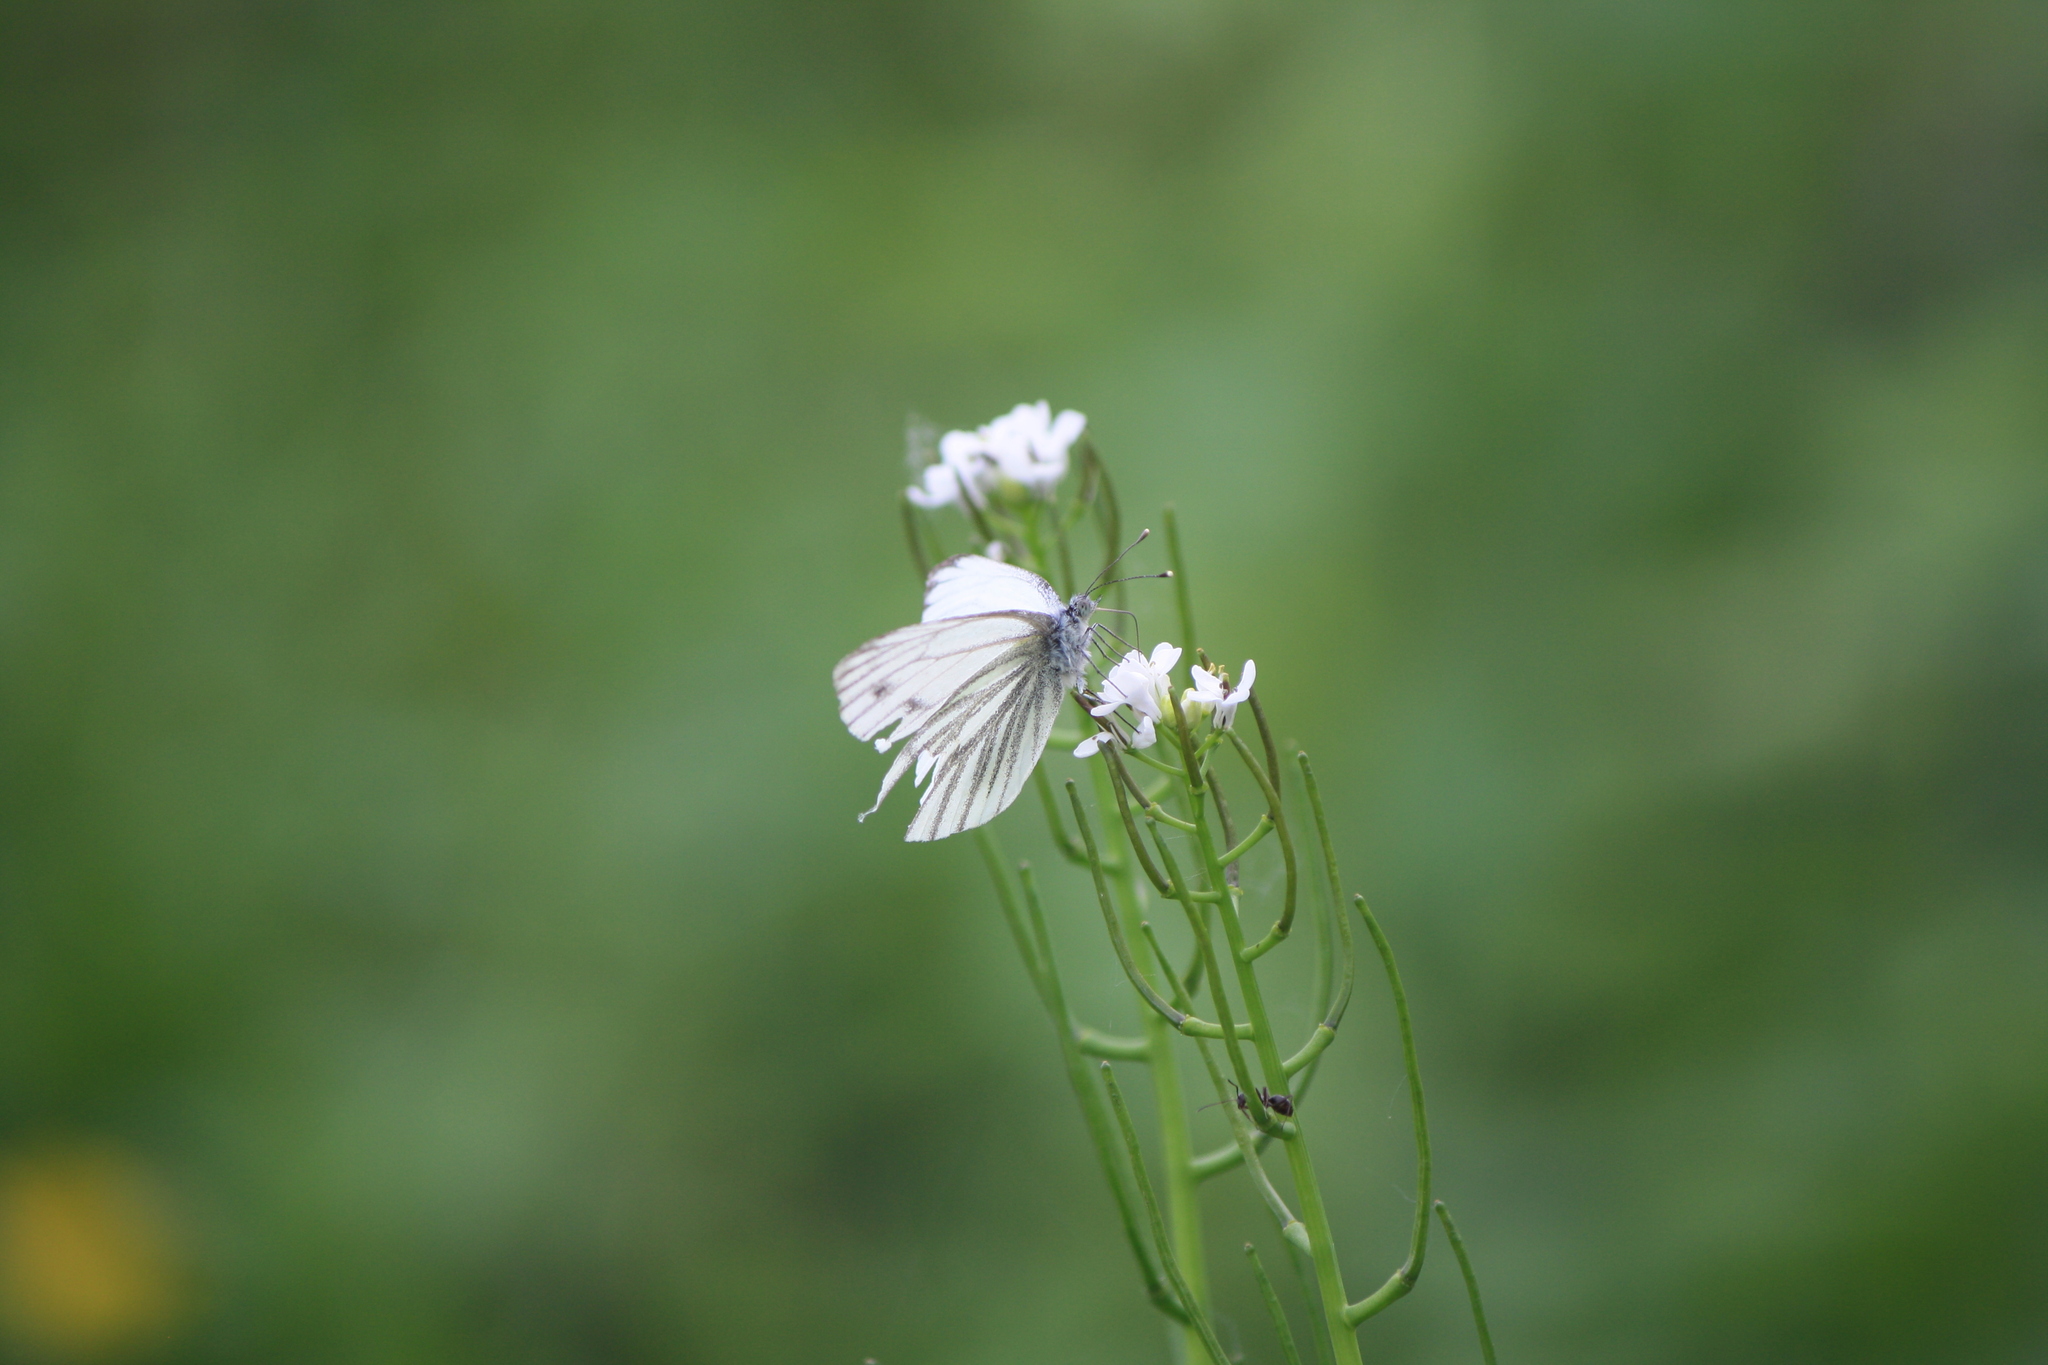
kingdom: Animalia
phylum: Arthropoda
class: Insecta
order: Lepidoptera
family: Pieridae
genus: Pieris
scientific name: Pieris napi
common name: Green-veined white
